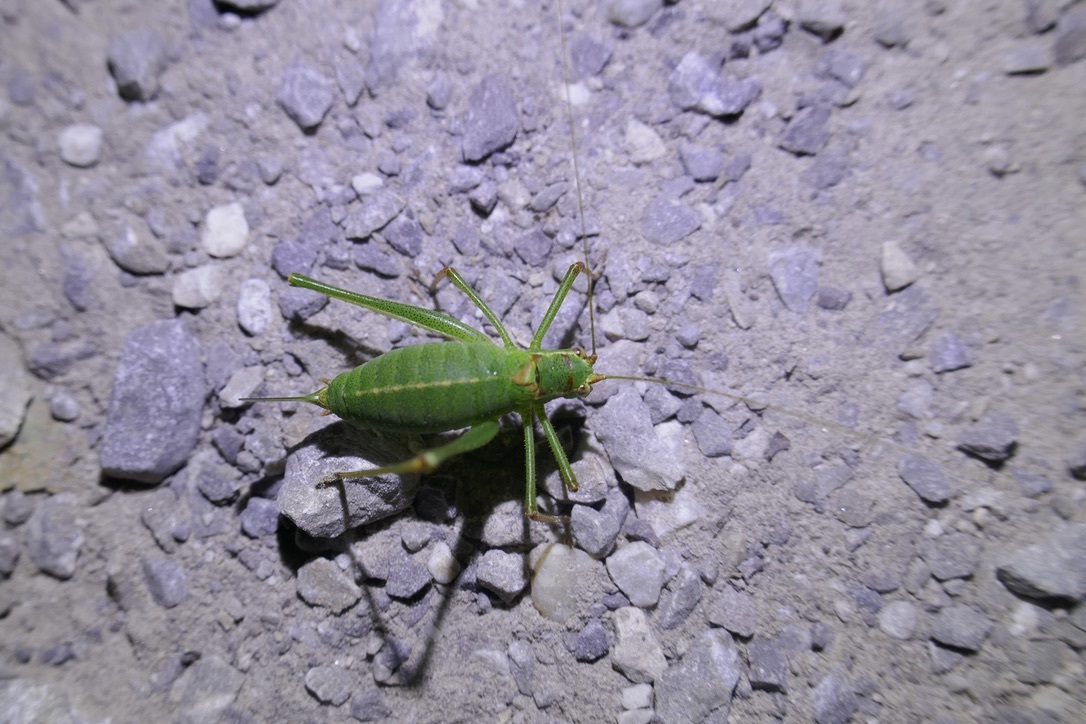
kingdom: Animalia
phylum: Arthropoda
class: Insecta
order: Orthoptera
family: Tettigoniidae
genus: Leptophyes
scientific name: Leptophyes punctatissima
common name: Speckled bush-cricket
